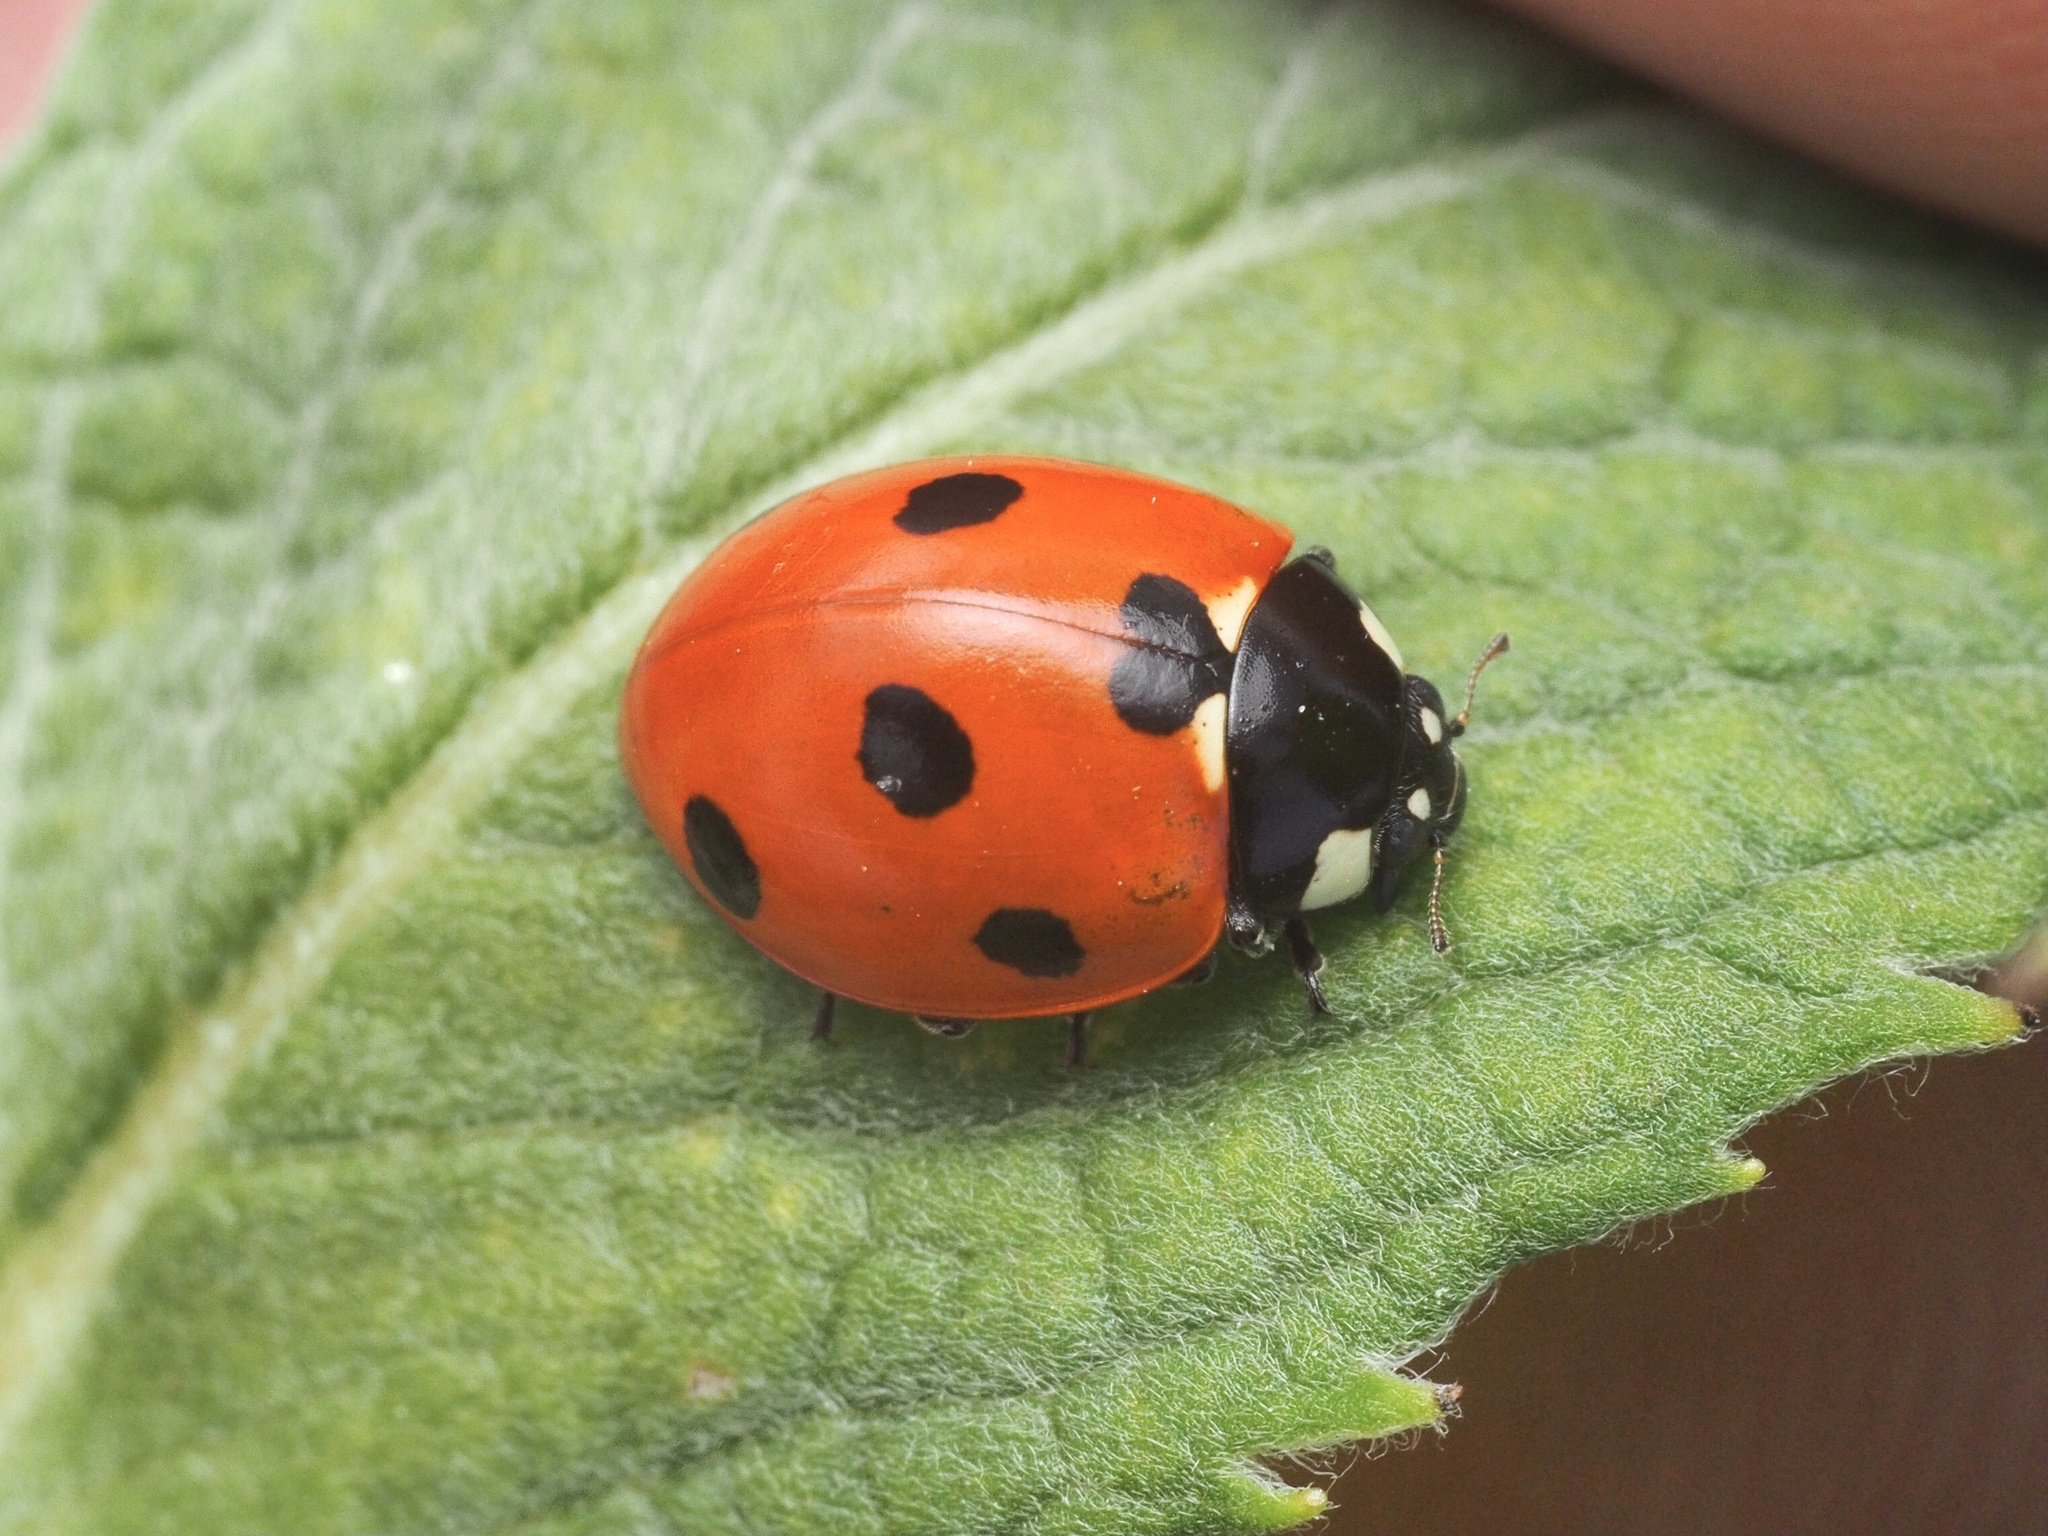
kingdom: Animalia
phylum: Arthropoda
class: Insecta
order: Coleoptera
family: Coccinellidae
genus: Coccinella
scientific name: Coccinella septempunctata
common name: Sevenspotted lady beetle
